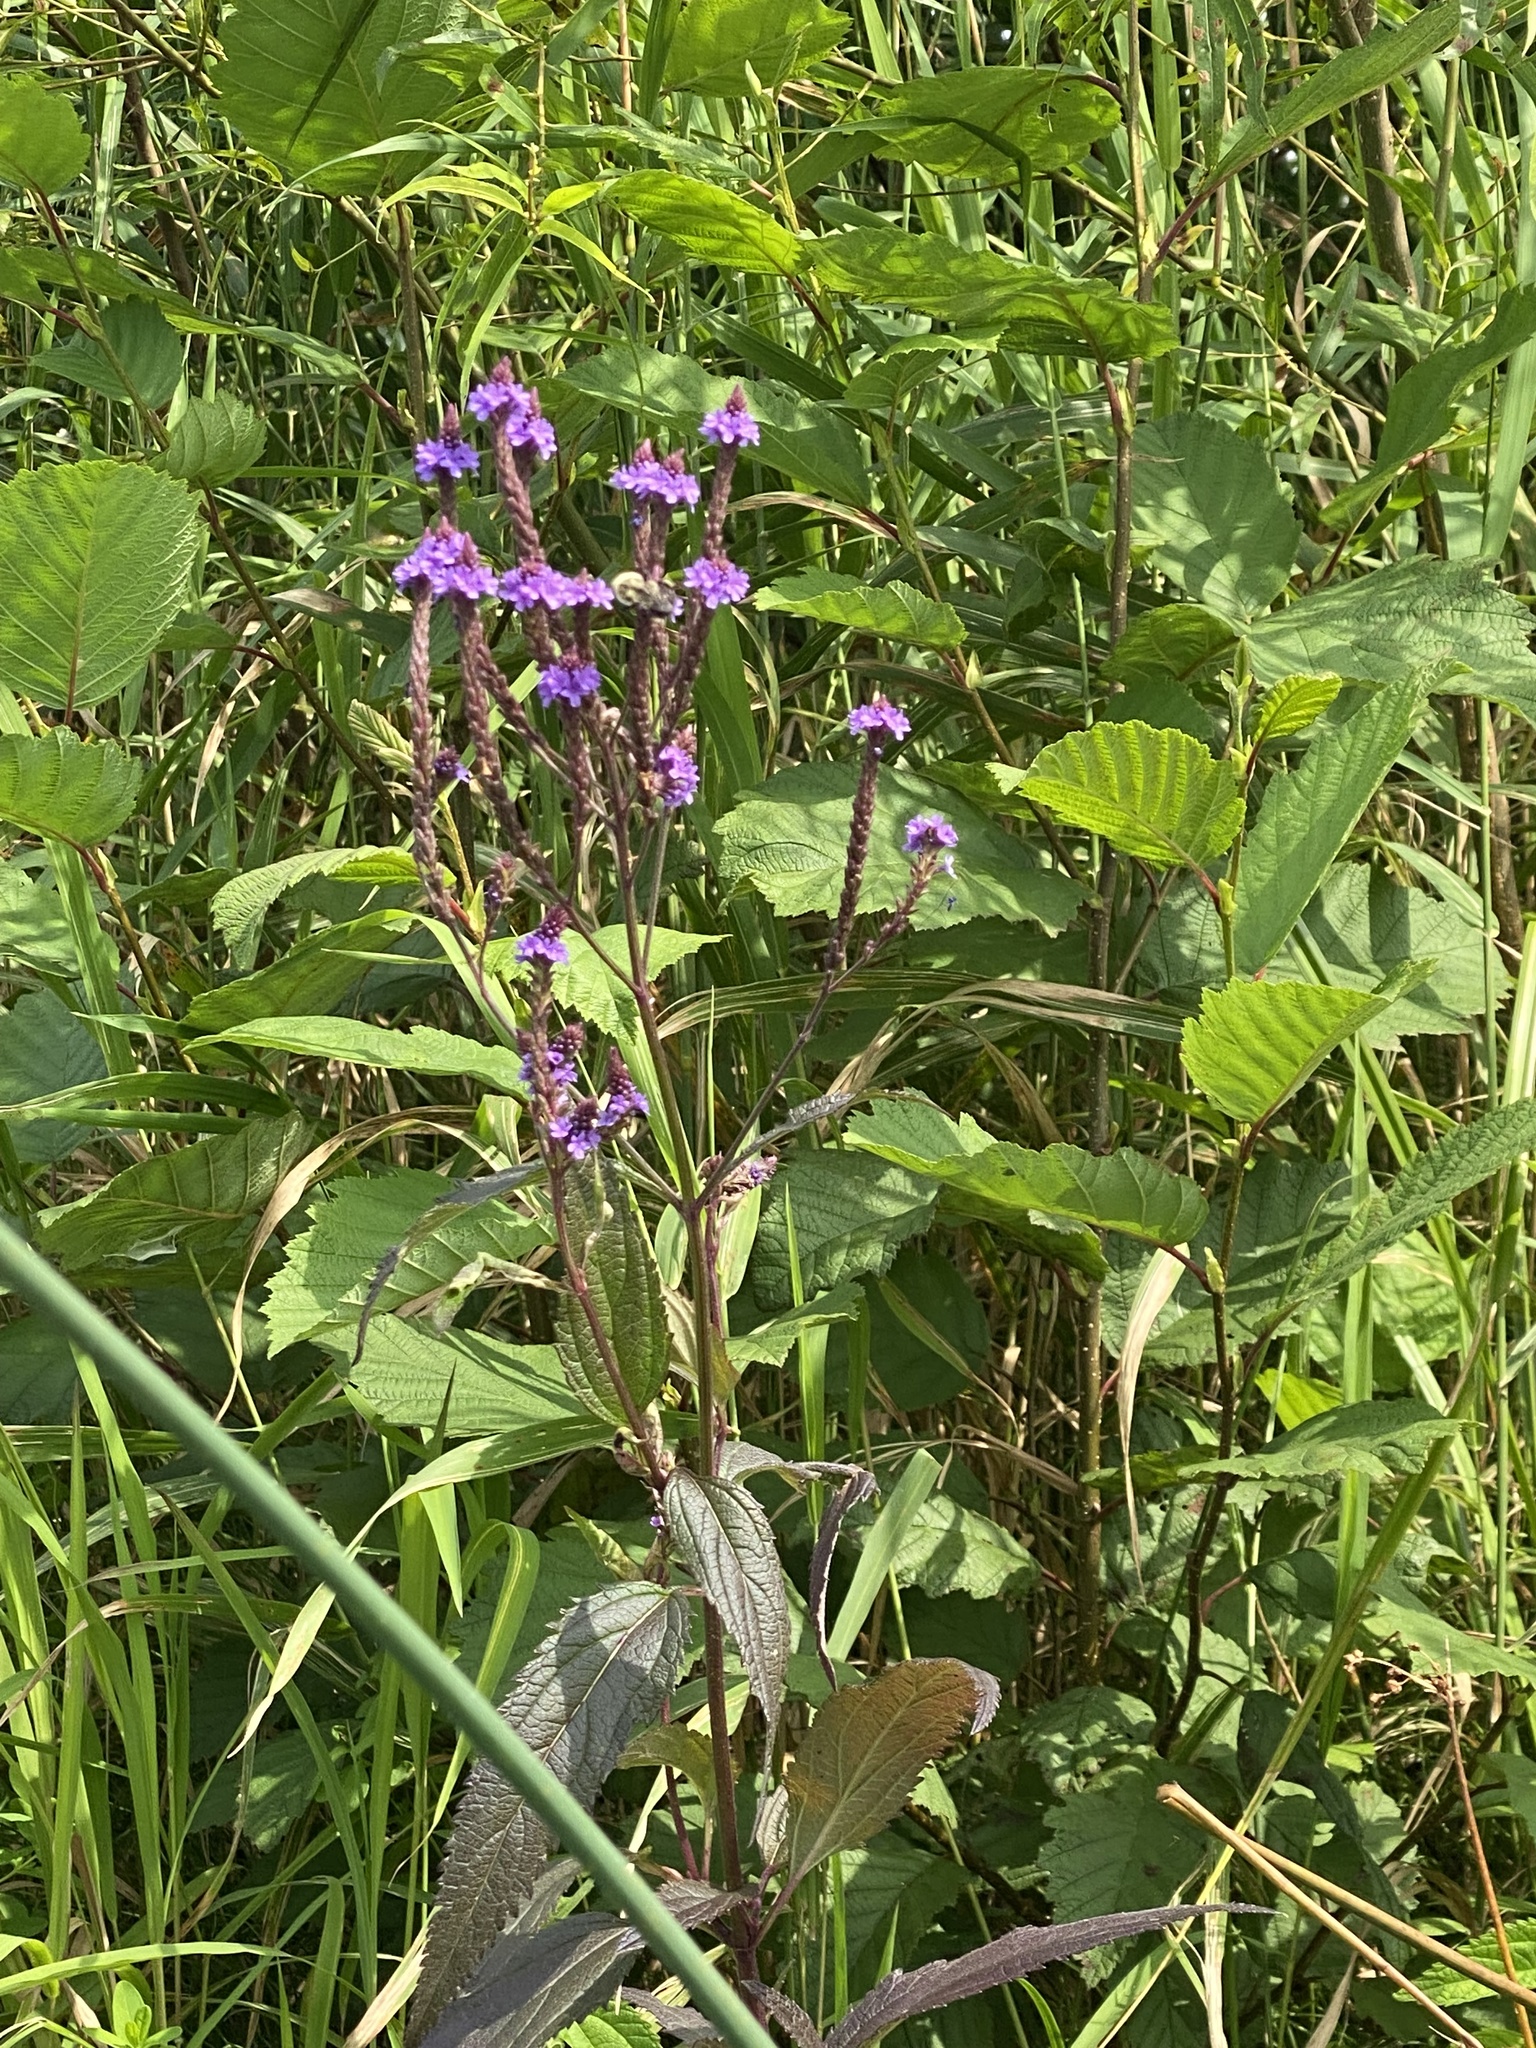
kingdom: Plantae
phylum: Tracheophyta
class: Magnoliopsida
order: Lamiales
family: Verbenaceae
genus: Verbena
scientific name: Verbena hastata
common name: American blue vervain
